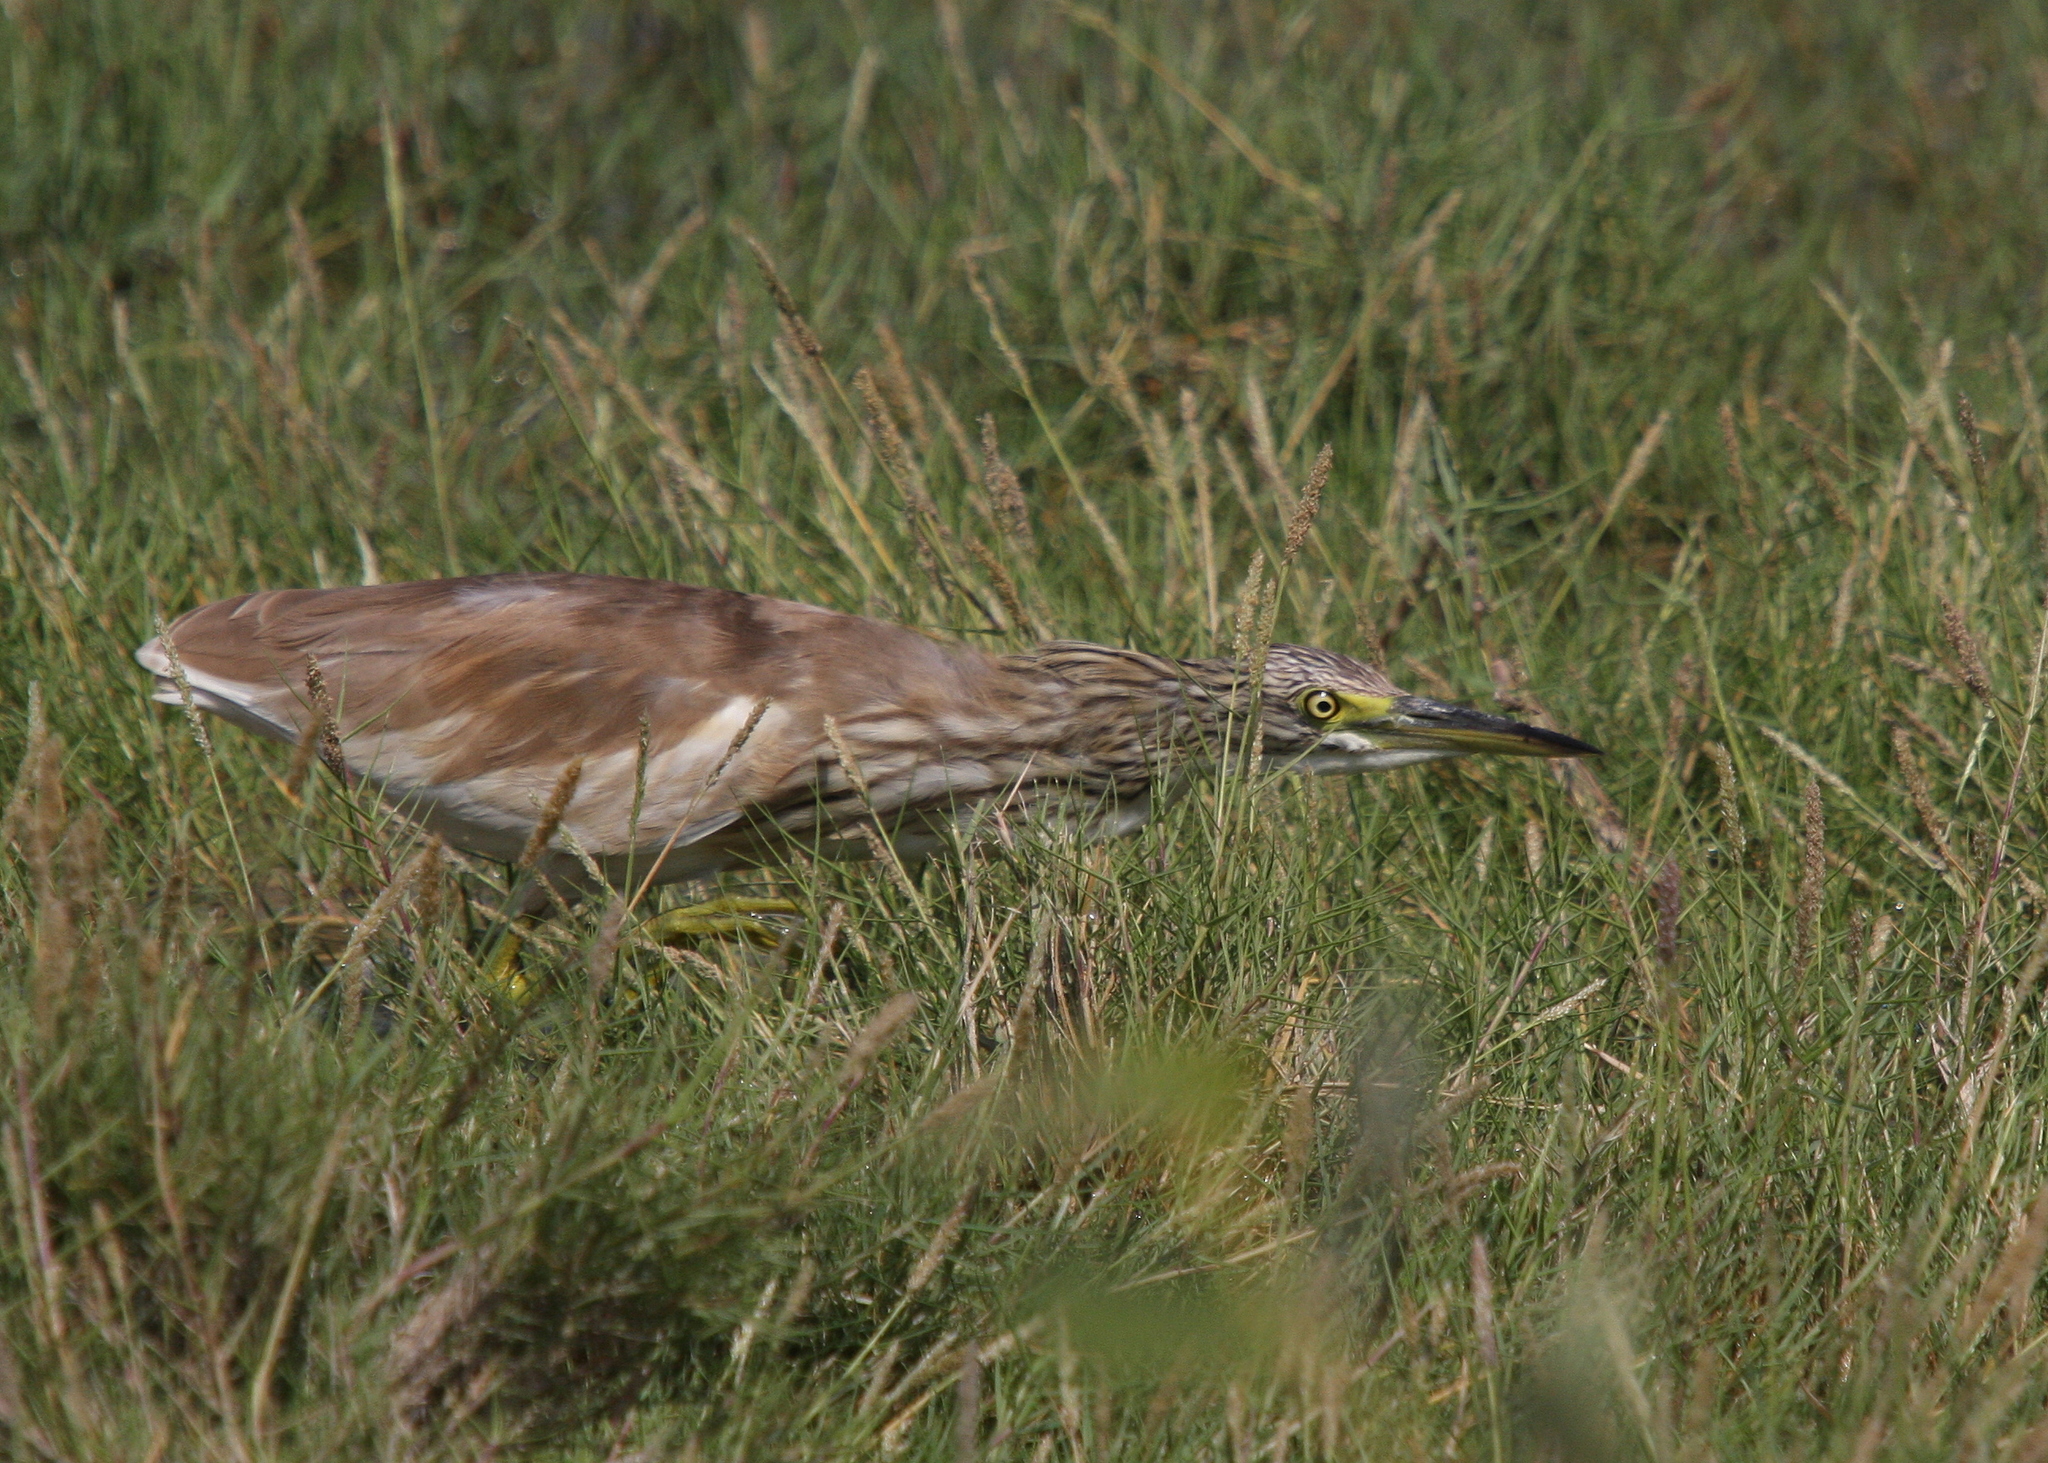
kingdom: Animalia
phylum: Chordata
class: Aves
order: Pelecaniformes
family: Ardeidae
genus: Ardeola
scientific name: Ardeola ralloides
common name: Squacco heron
